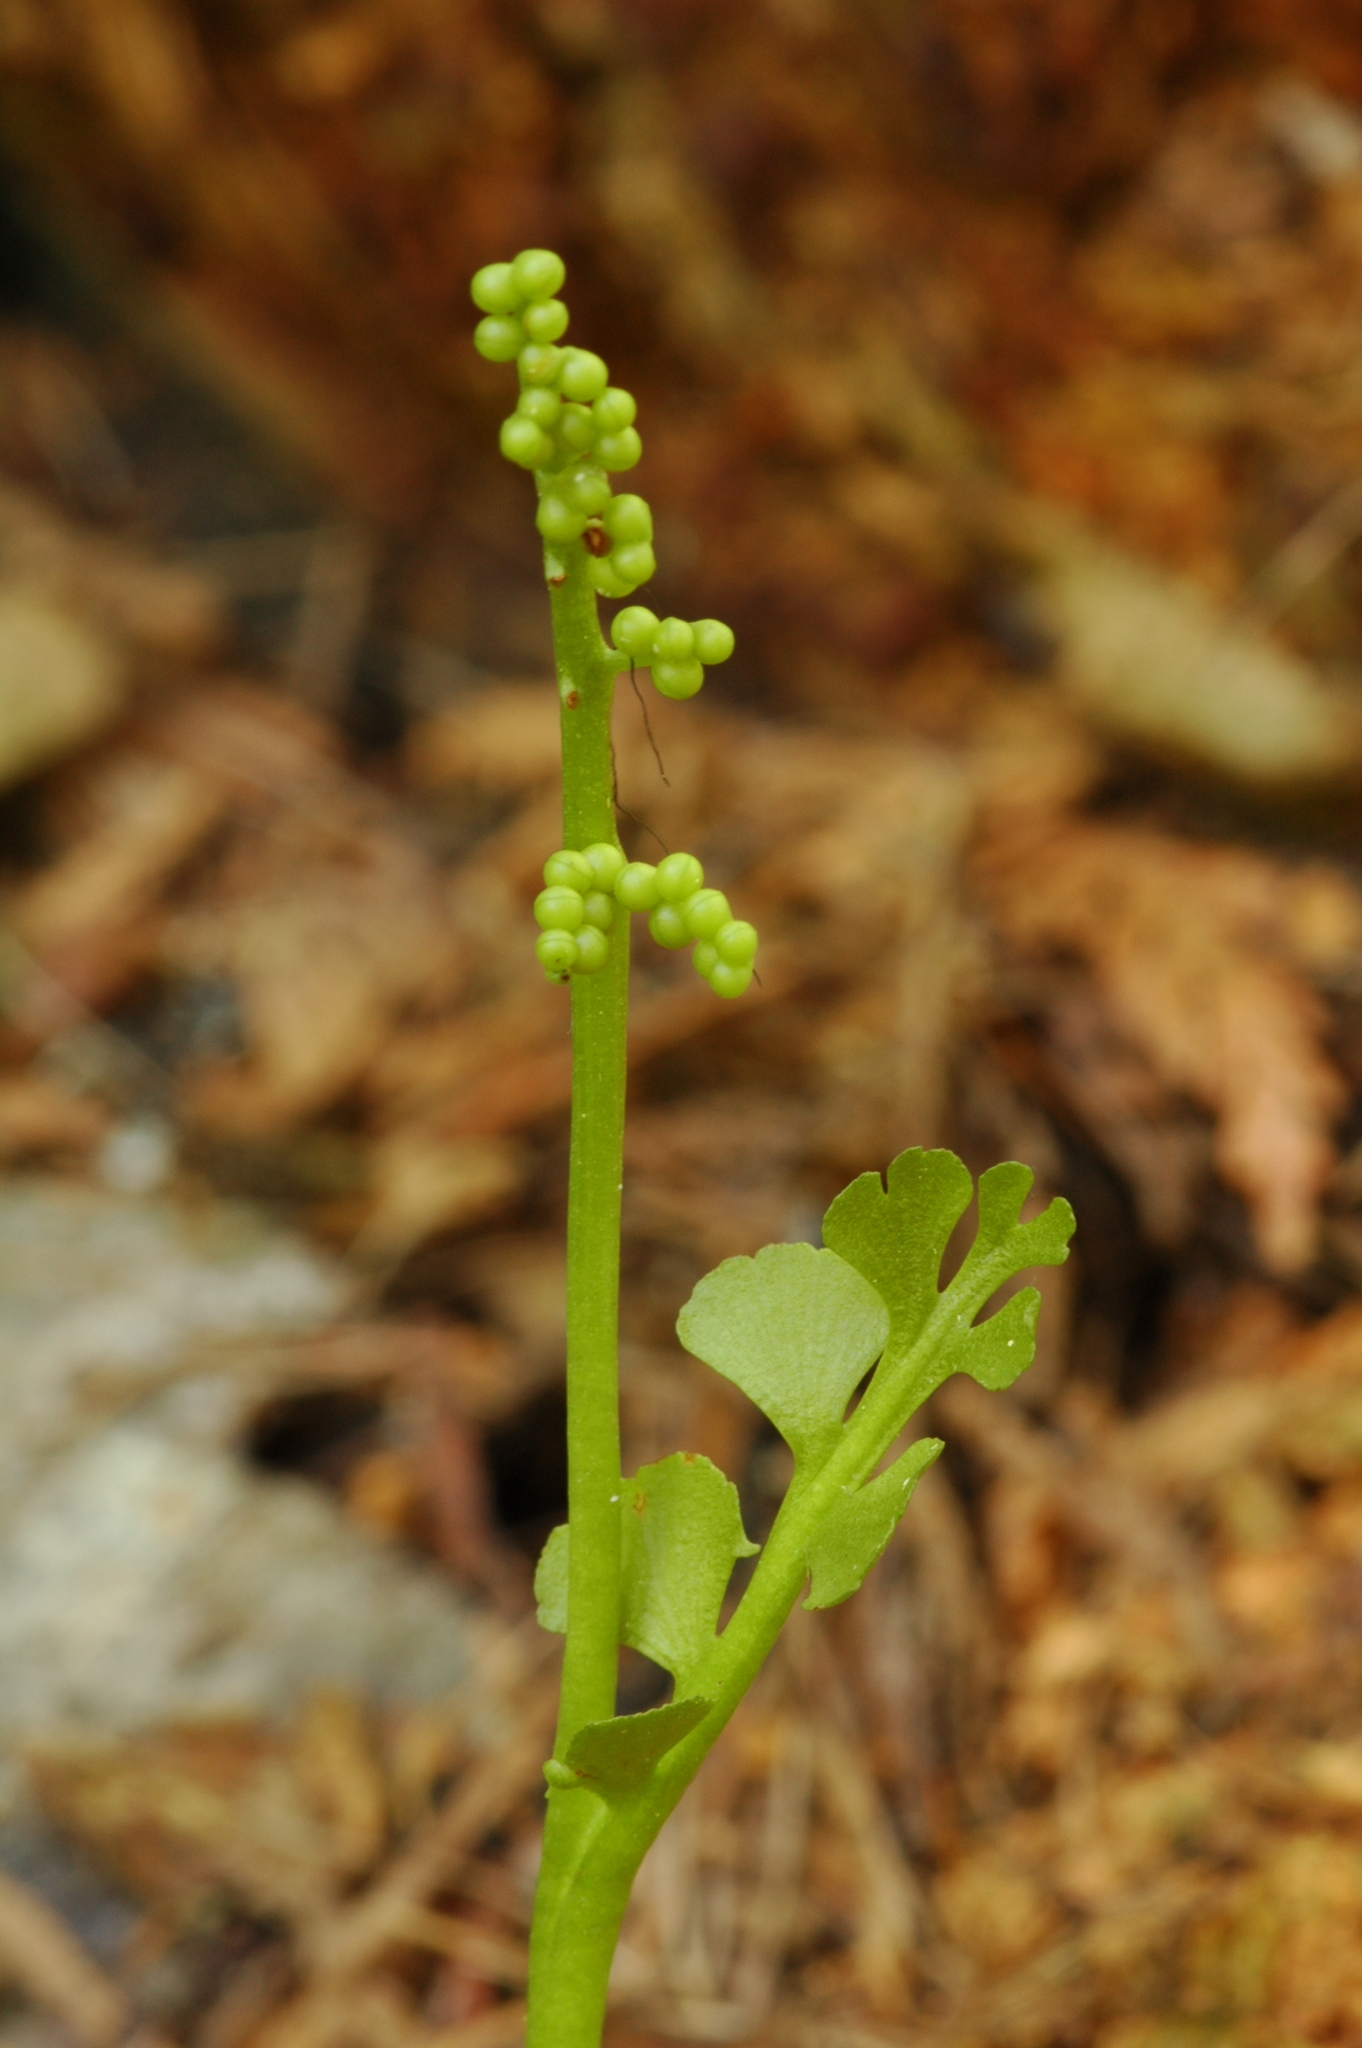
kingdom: Plantae
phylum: Tracheophyta
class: Polypodiopsida
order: Ophioglossales
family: Ophioglossaceae
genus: Botrychium
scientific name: Botrychium crenulatum
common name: Crenulate moonwort
